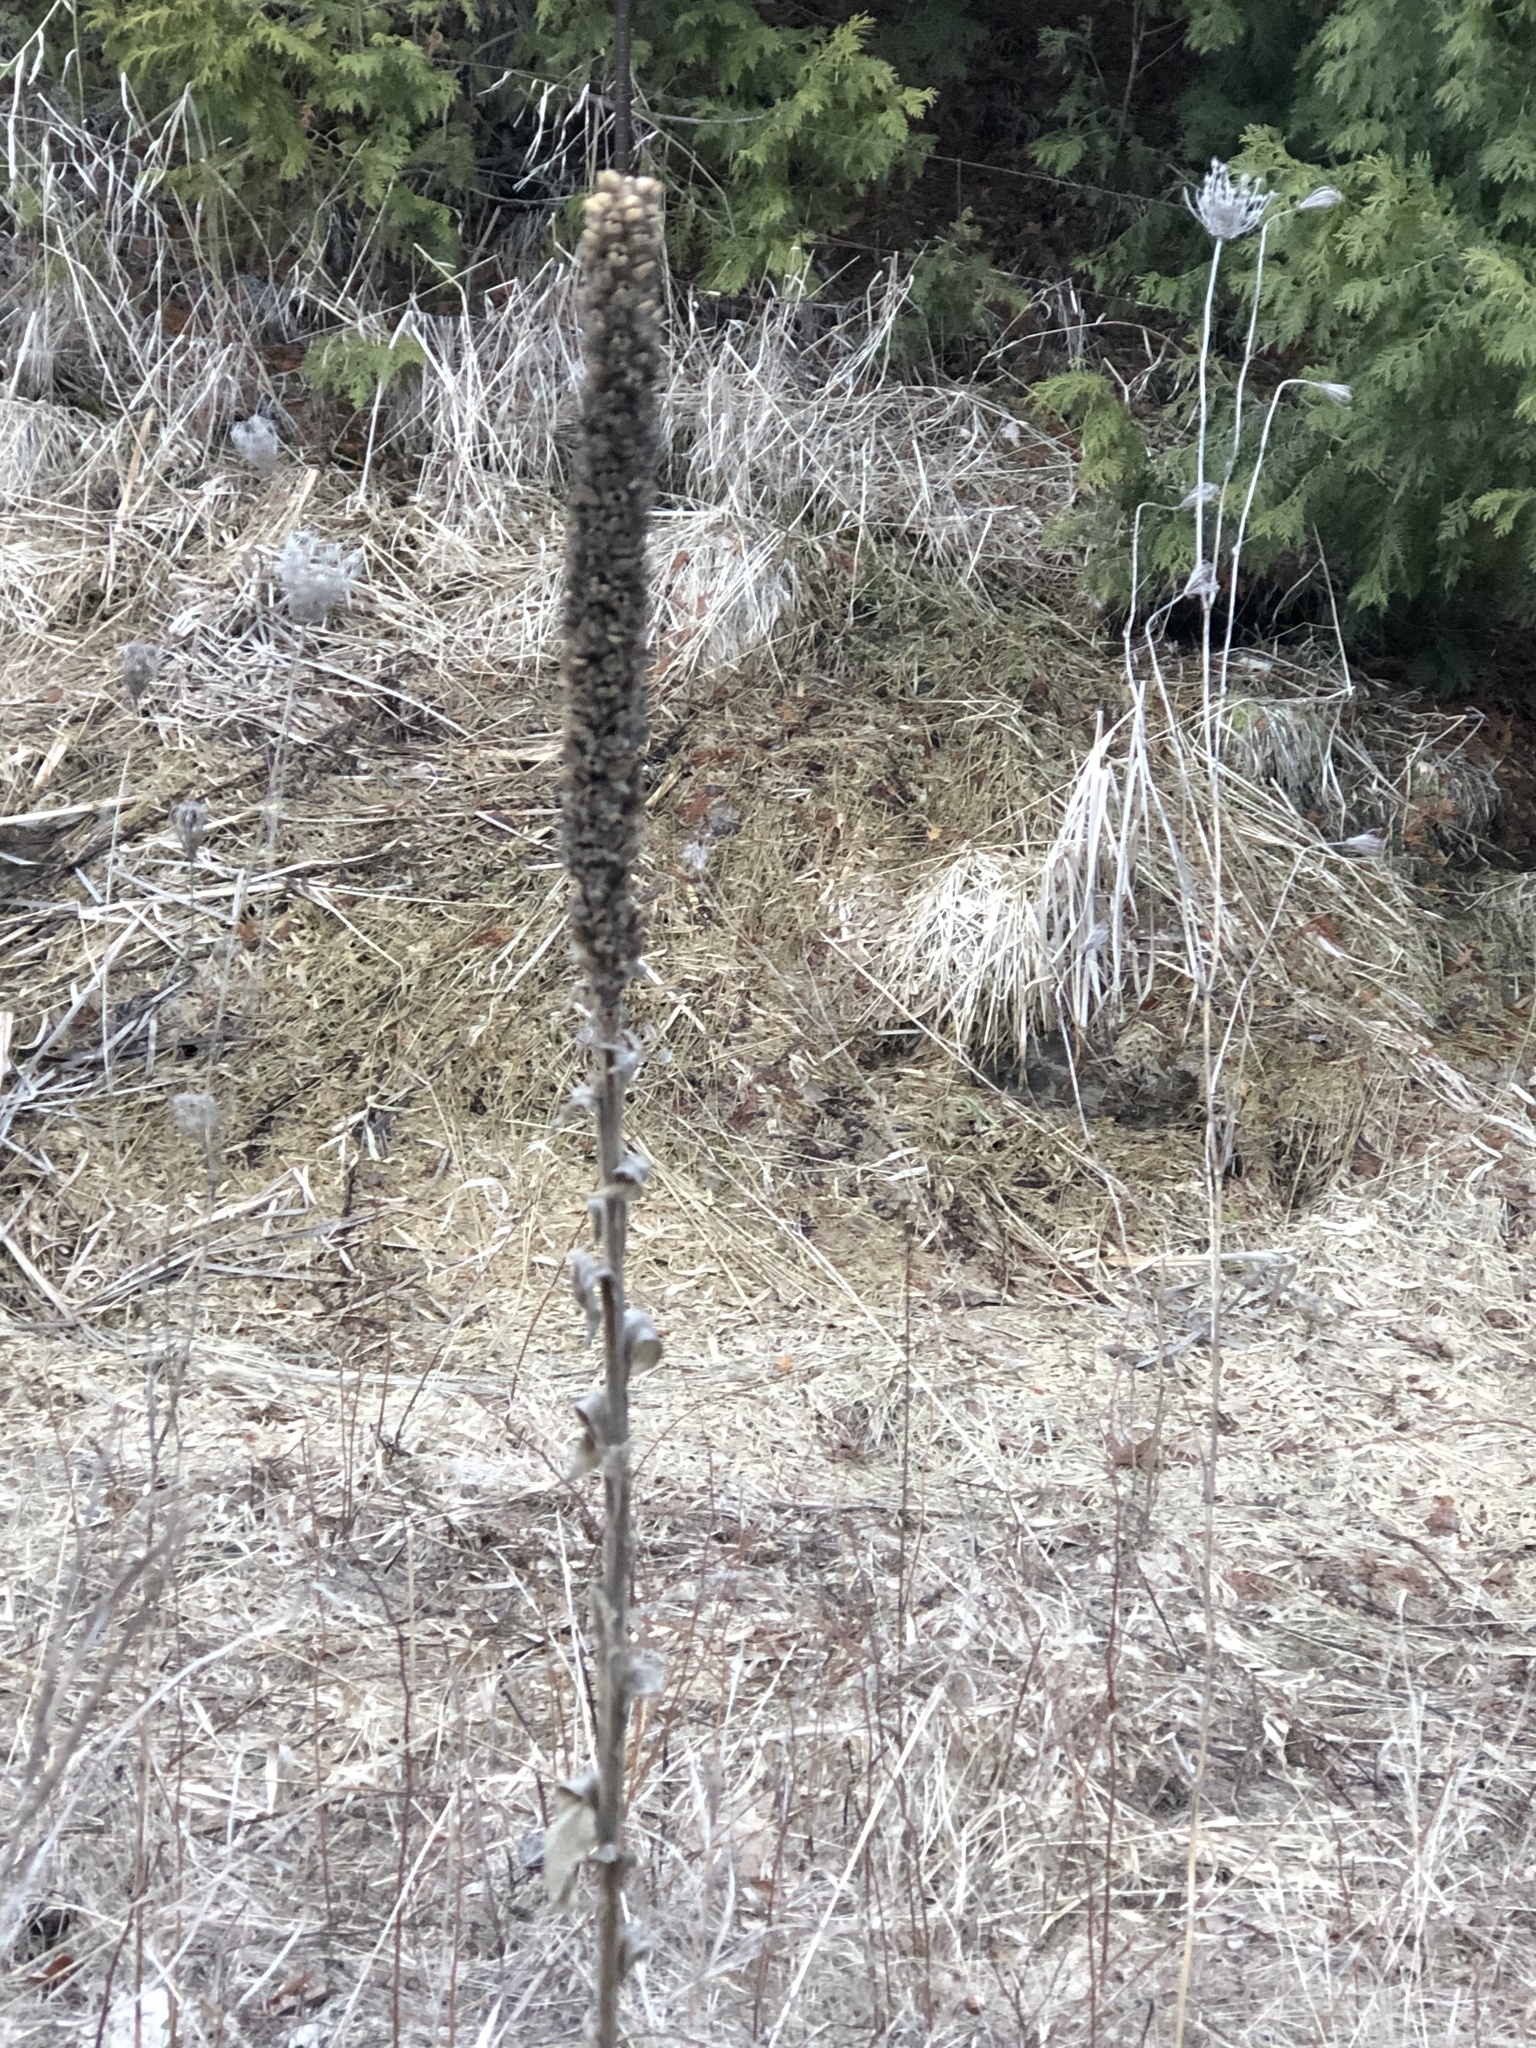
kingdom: Plantae
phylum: Tracheophyta
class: Magnoliopsida
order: Lamiales
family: Scrophulariaceae
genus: Verbascum
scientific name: Verbascum thapsus
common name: Common mullein
